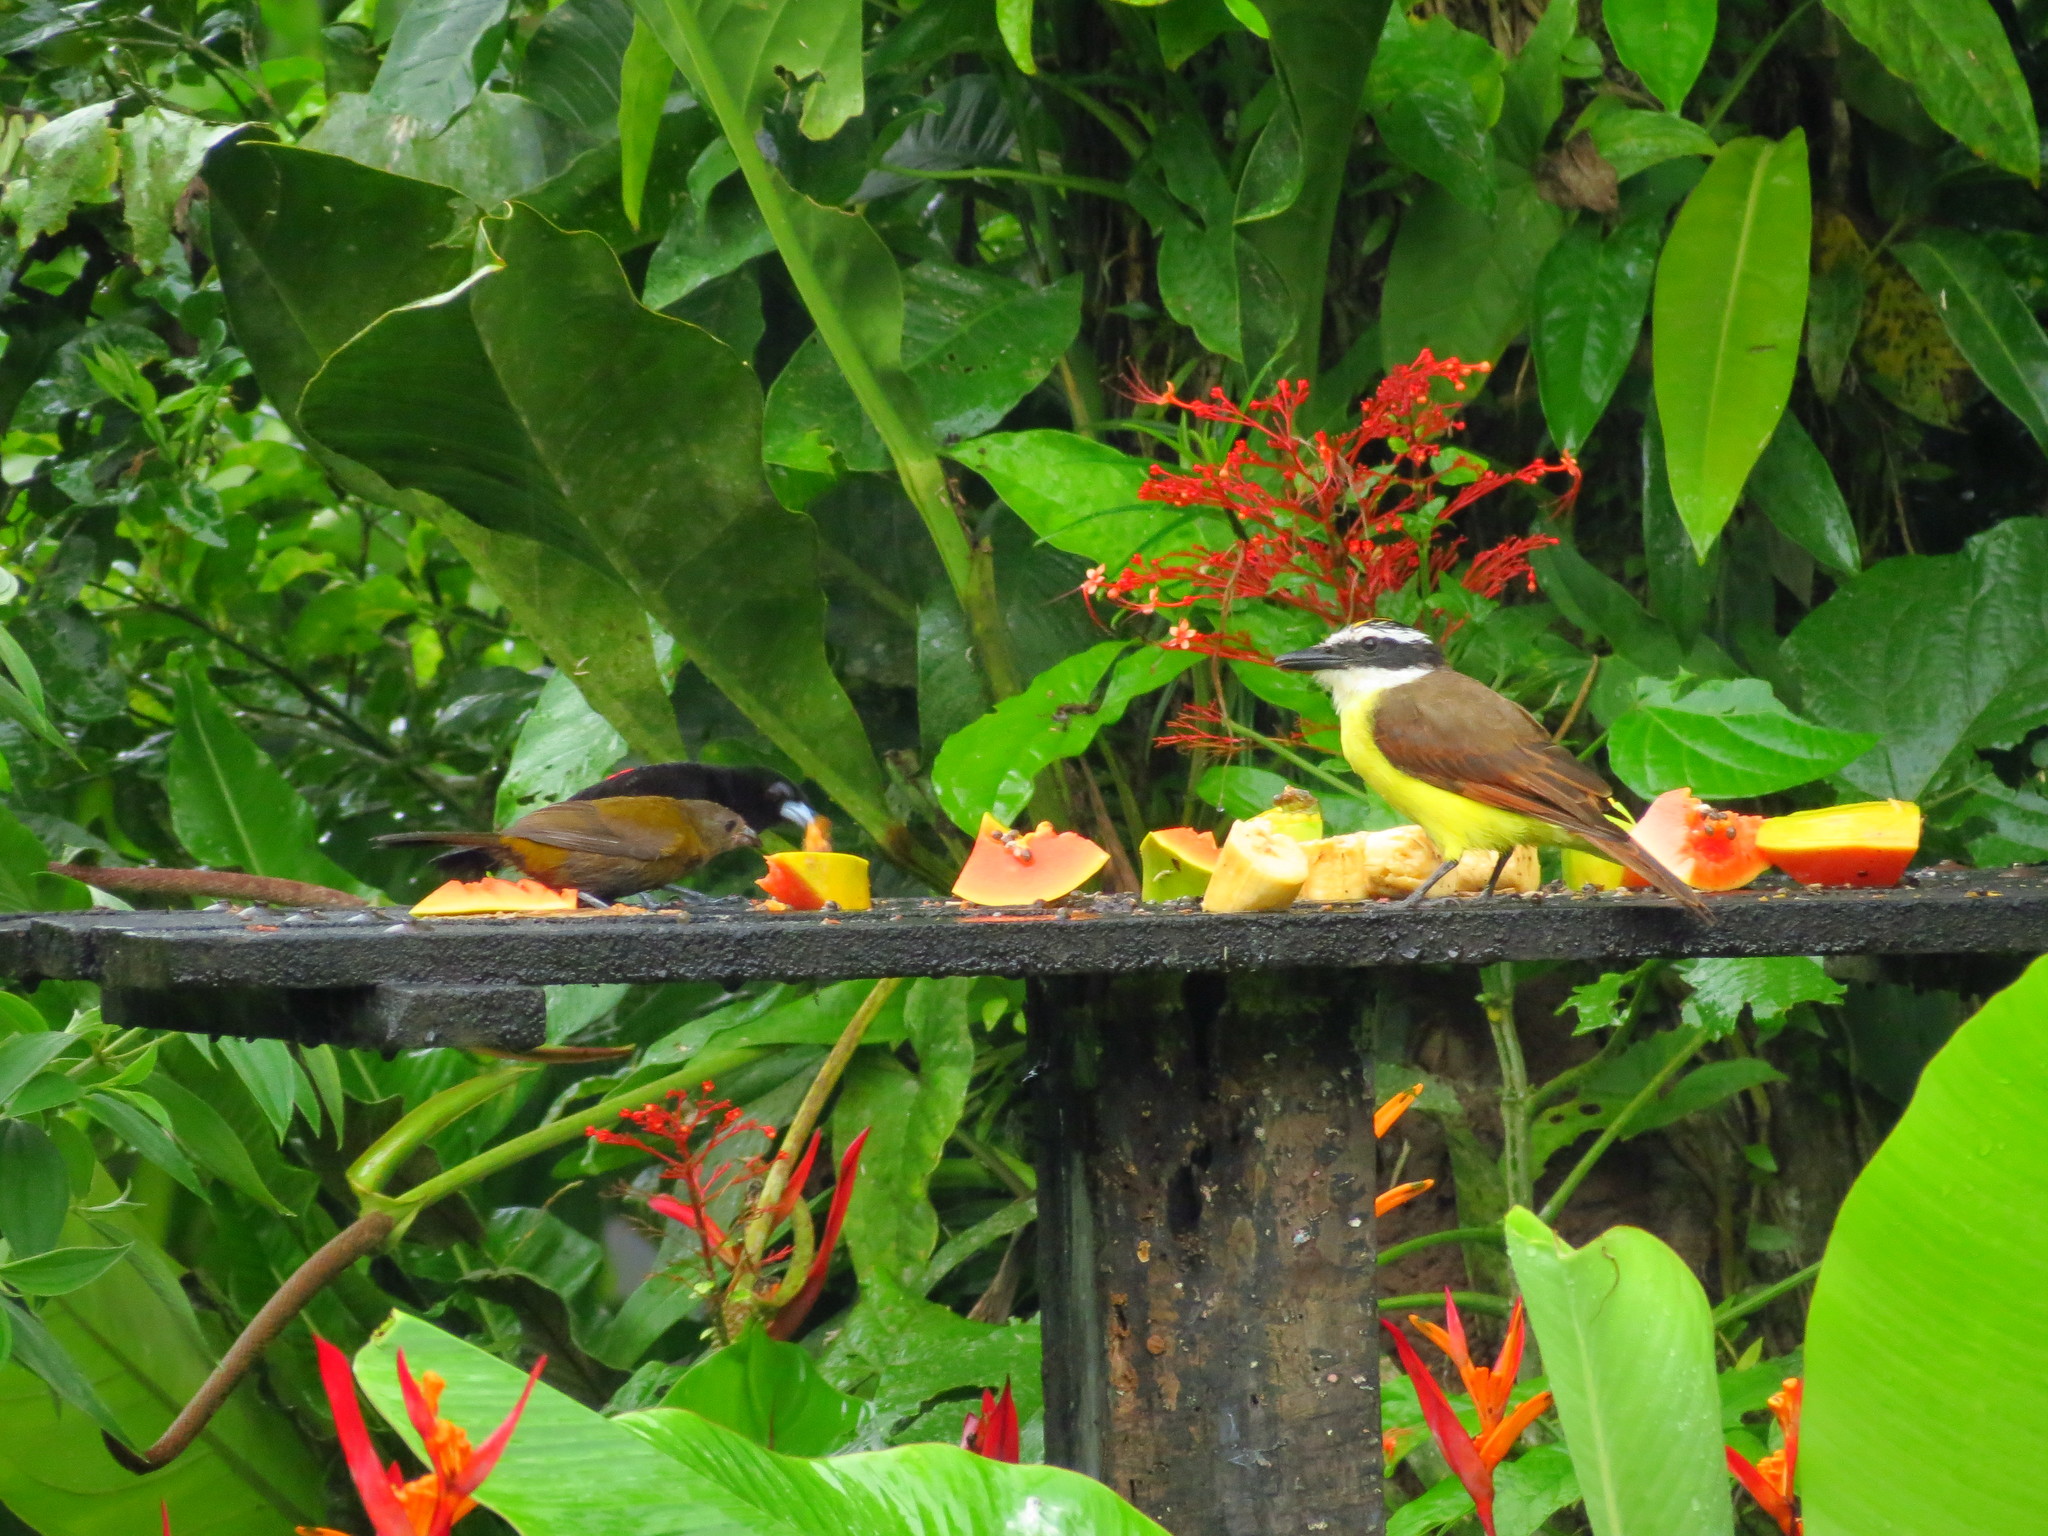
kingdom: Animalia
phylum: Chordata
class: Aves
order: Passeriformes
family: Tyrannidae
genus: Pitangus
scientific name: Pitangus sulphuratus
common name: Great kiskadee
